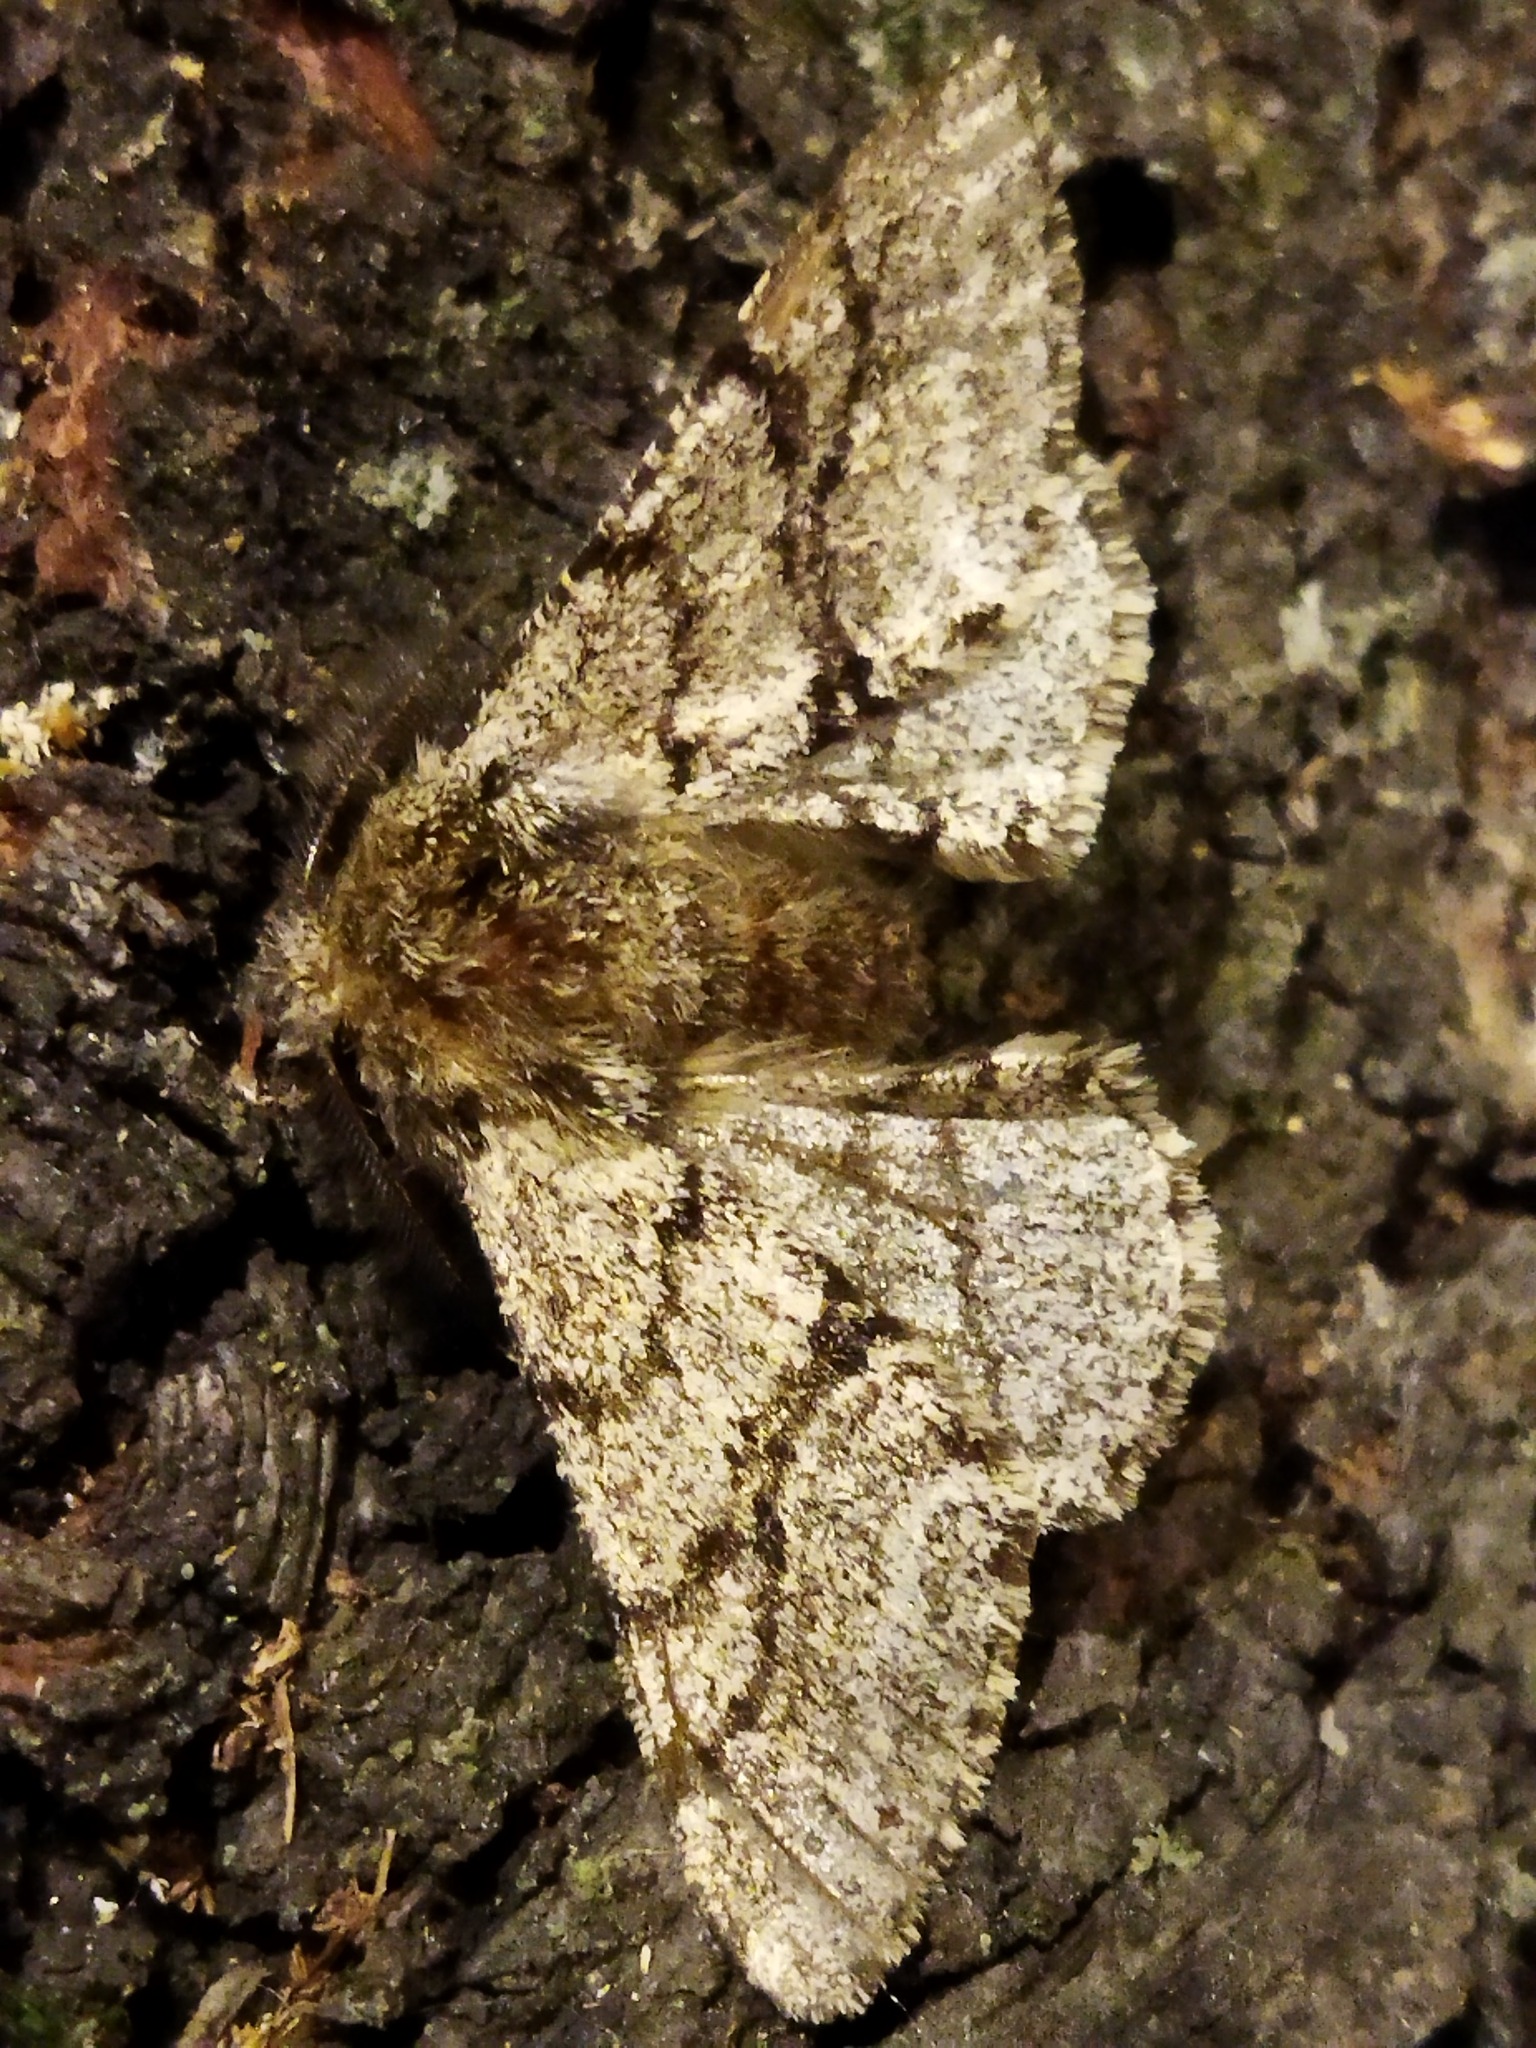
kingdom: Animalia
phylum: Arthropoda
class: Insecta
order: Lepidoptera
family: Geometridae
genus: Lycia
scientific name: Lycia hirtaria
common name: Brindled beauty
